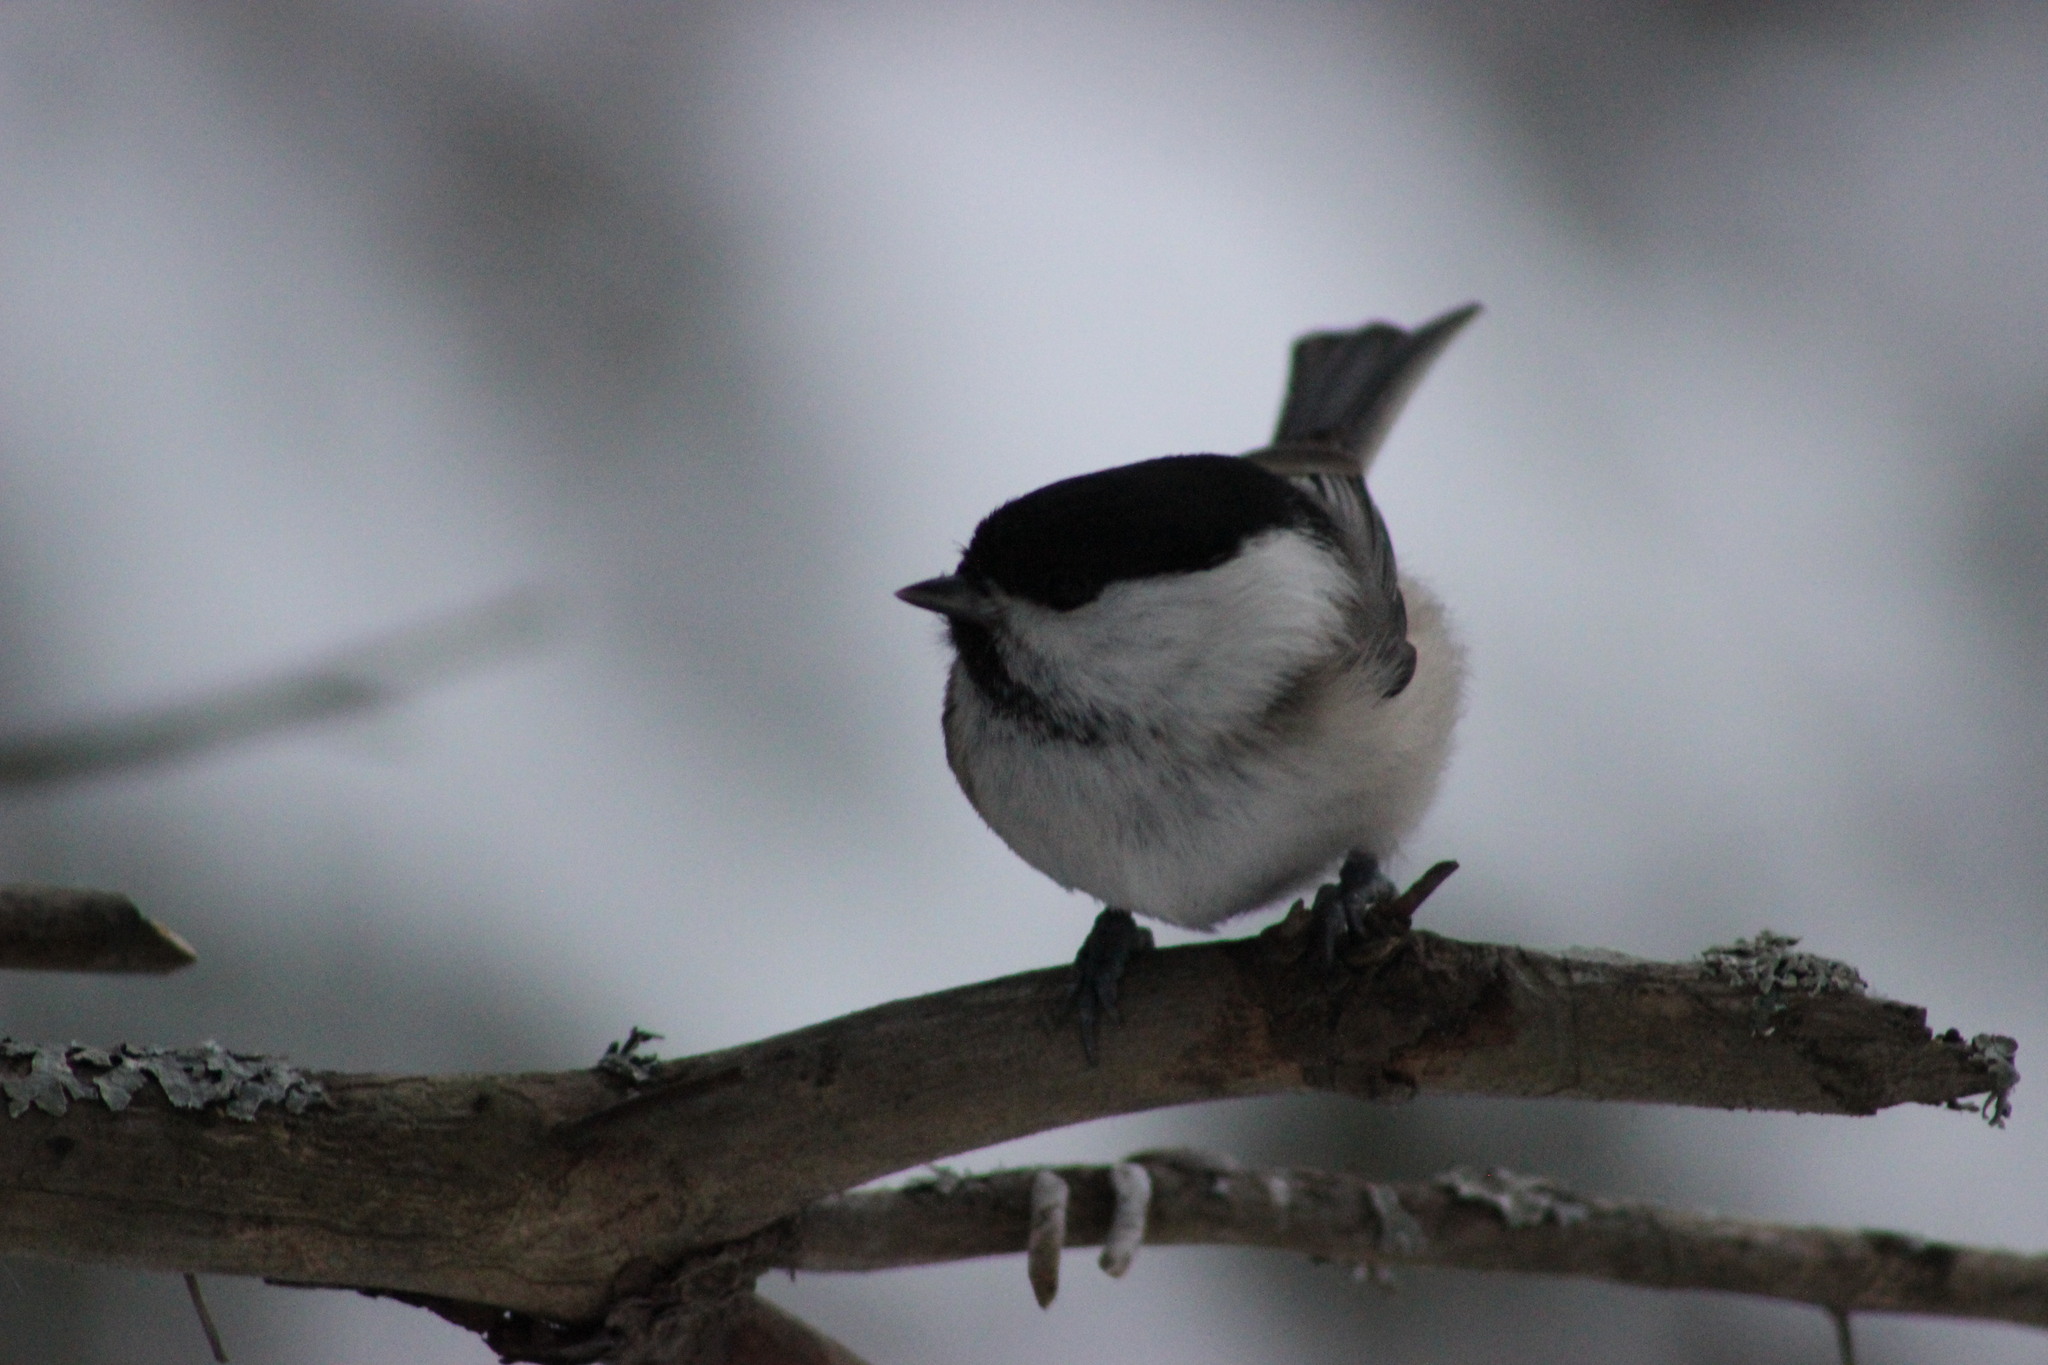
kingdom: Animalia
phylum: Chordata
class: Aves
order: Passeriformes
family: Paridae
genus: Poecile
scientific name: Poecile montanus
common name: Willow tit
